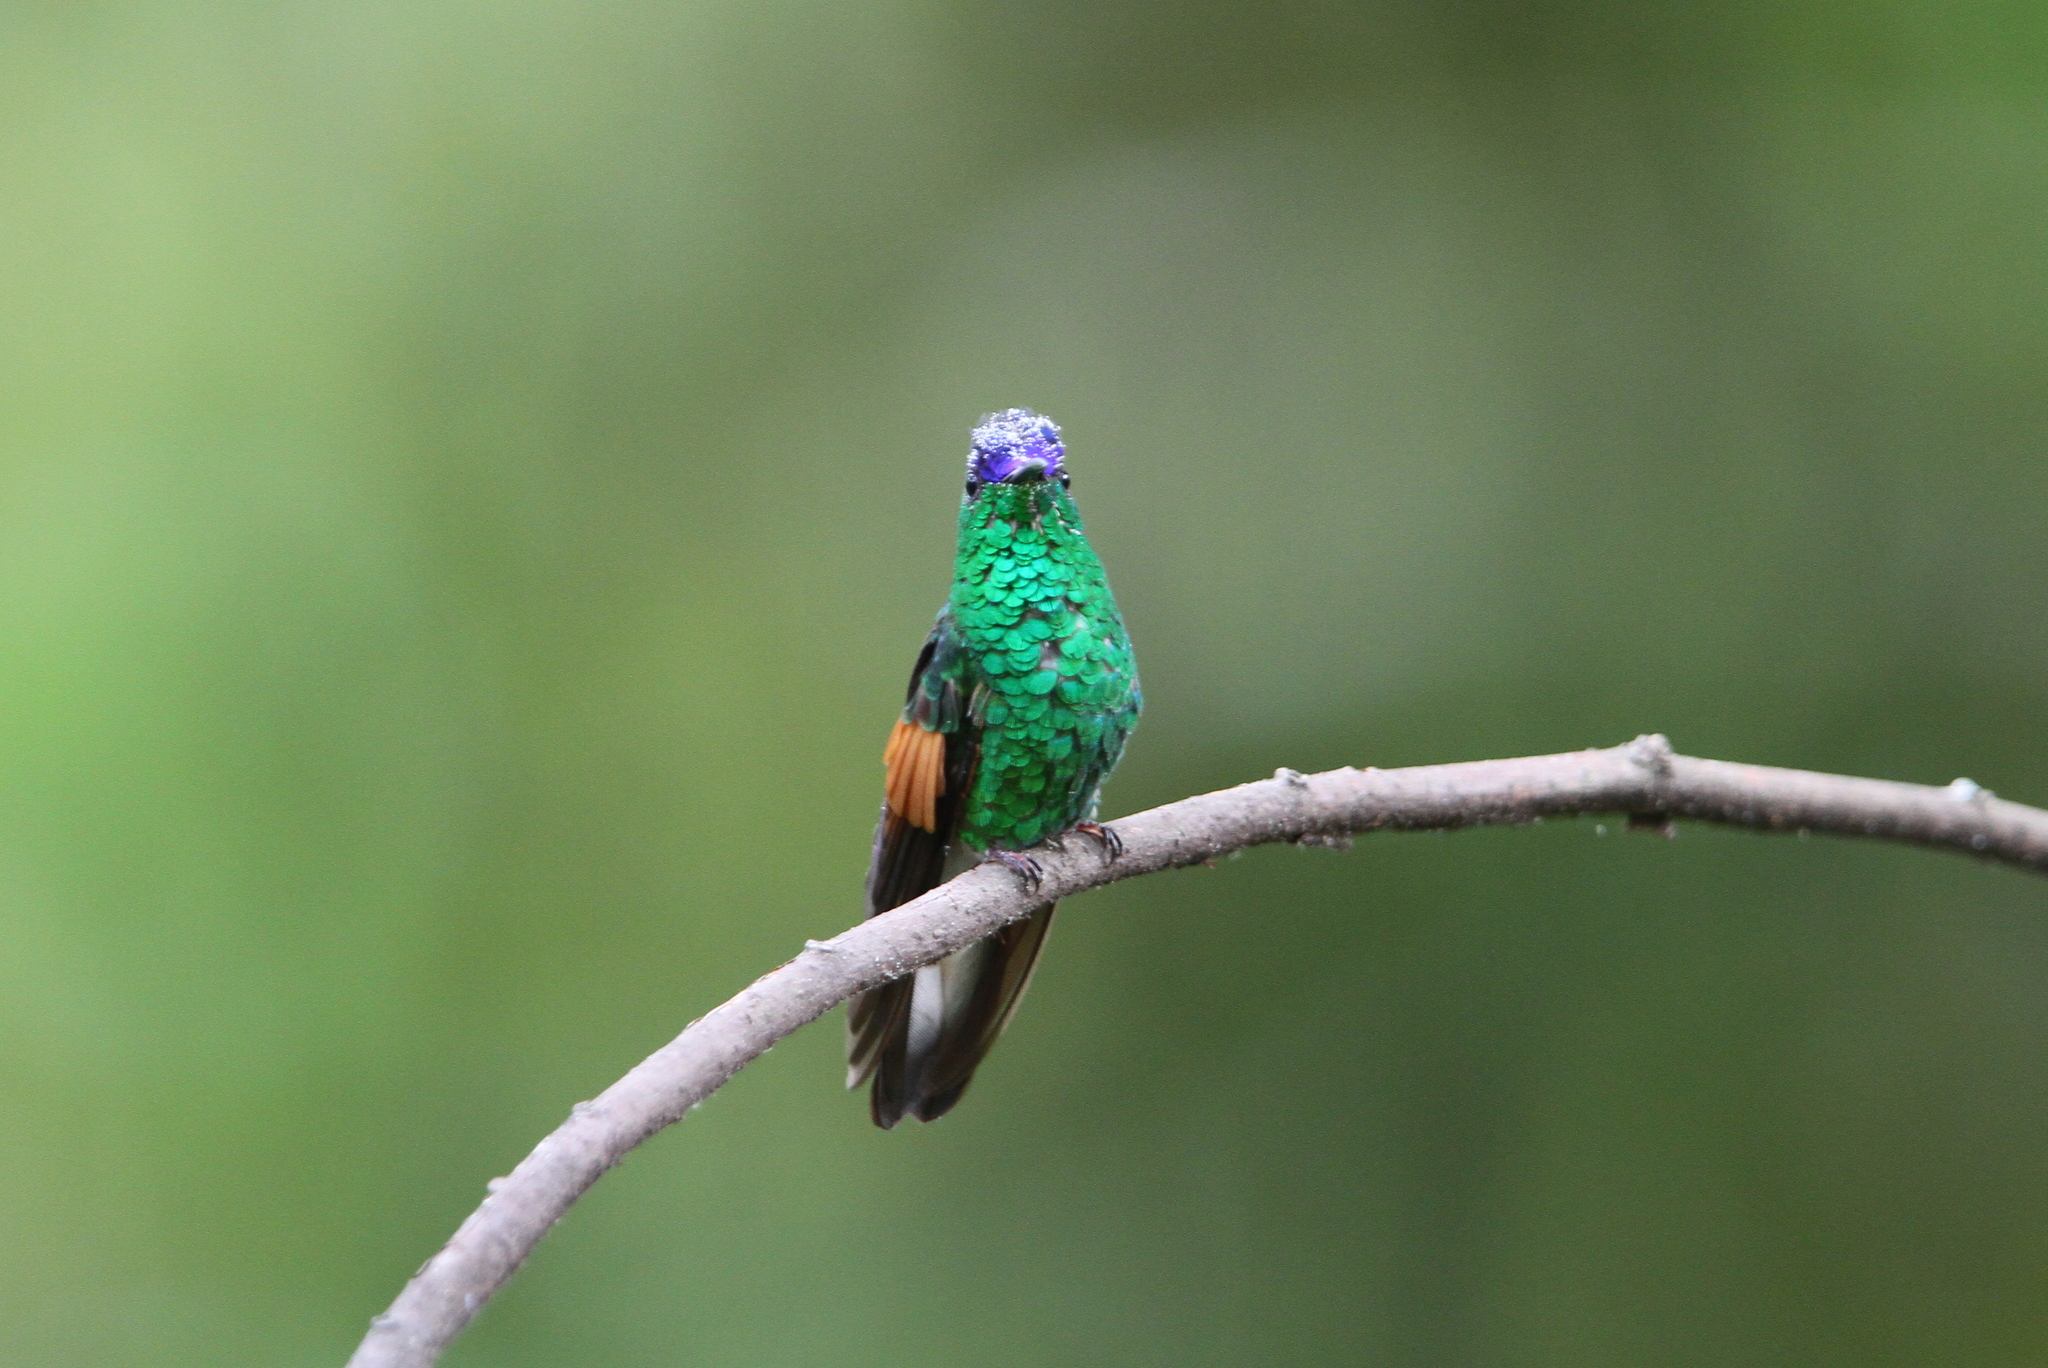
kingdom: Animalia
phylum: Chordata
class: Aves
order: Apodiformes
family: Trochilidae
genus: Eupherusa
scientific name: Eupherusa cyanophrys
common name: Oaxaca hummingbird
